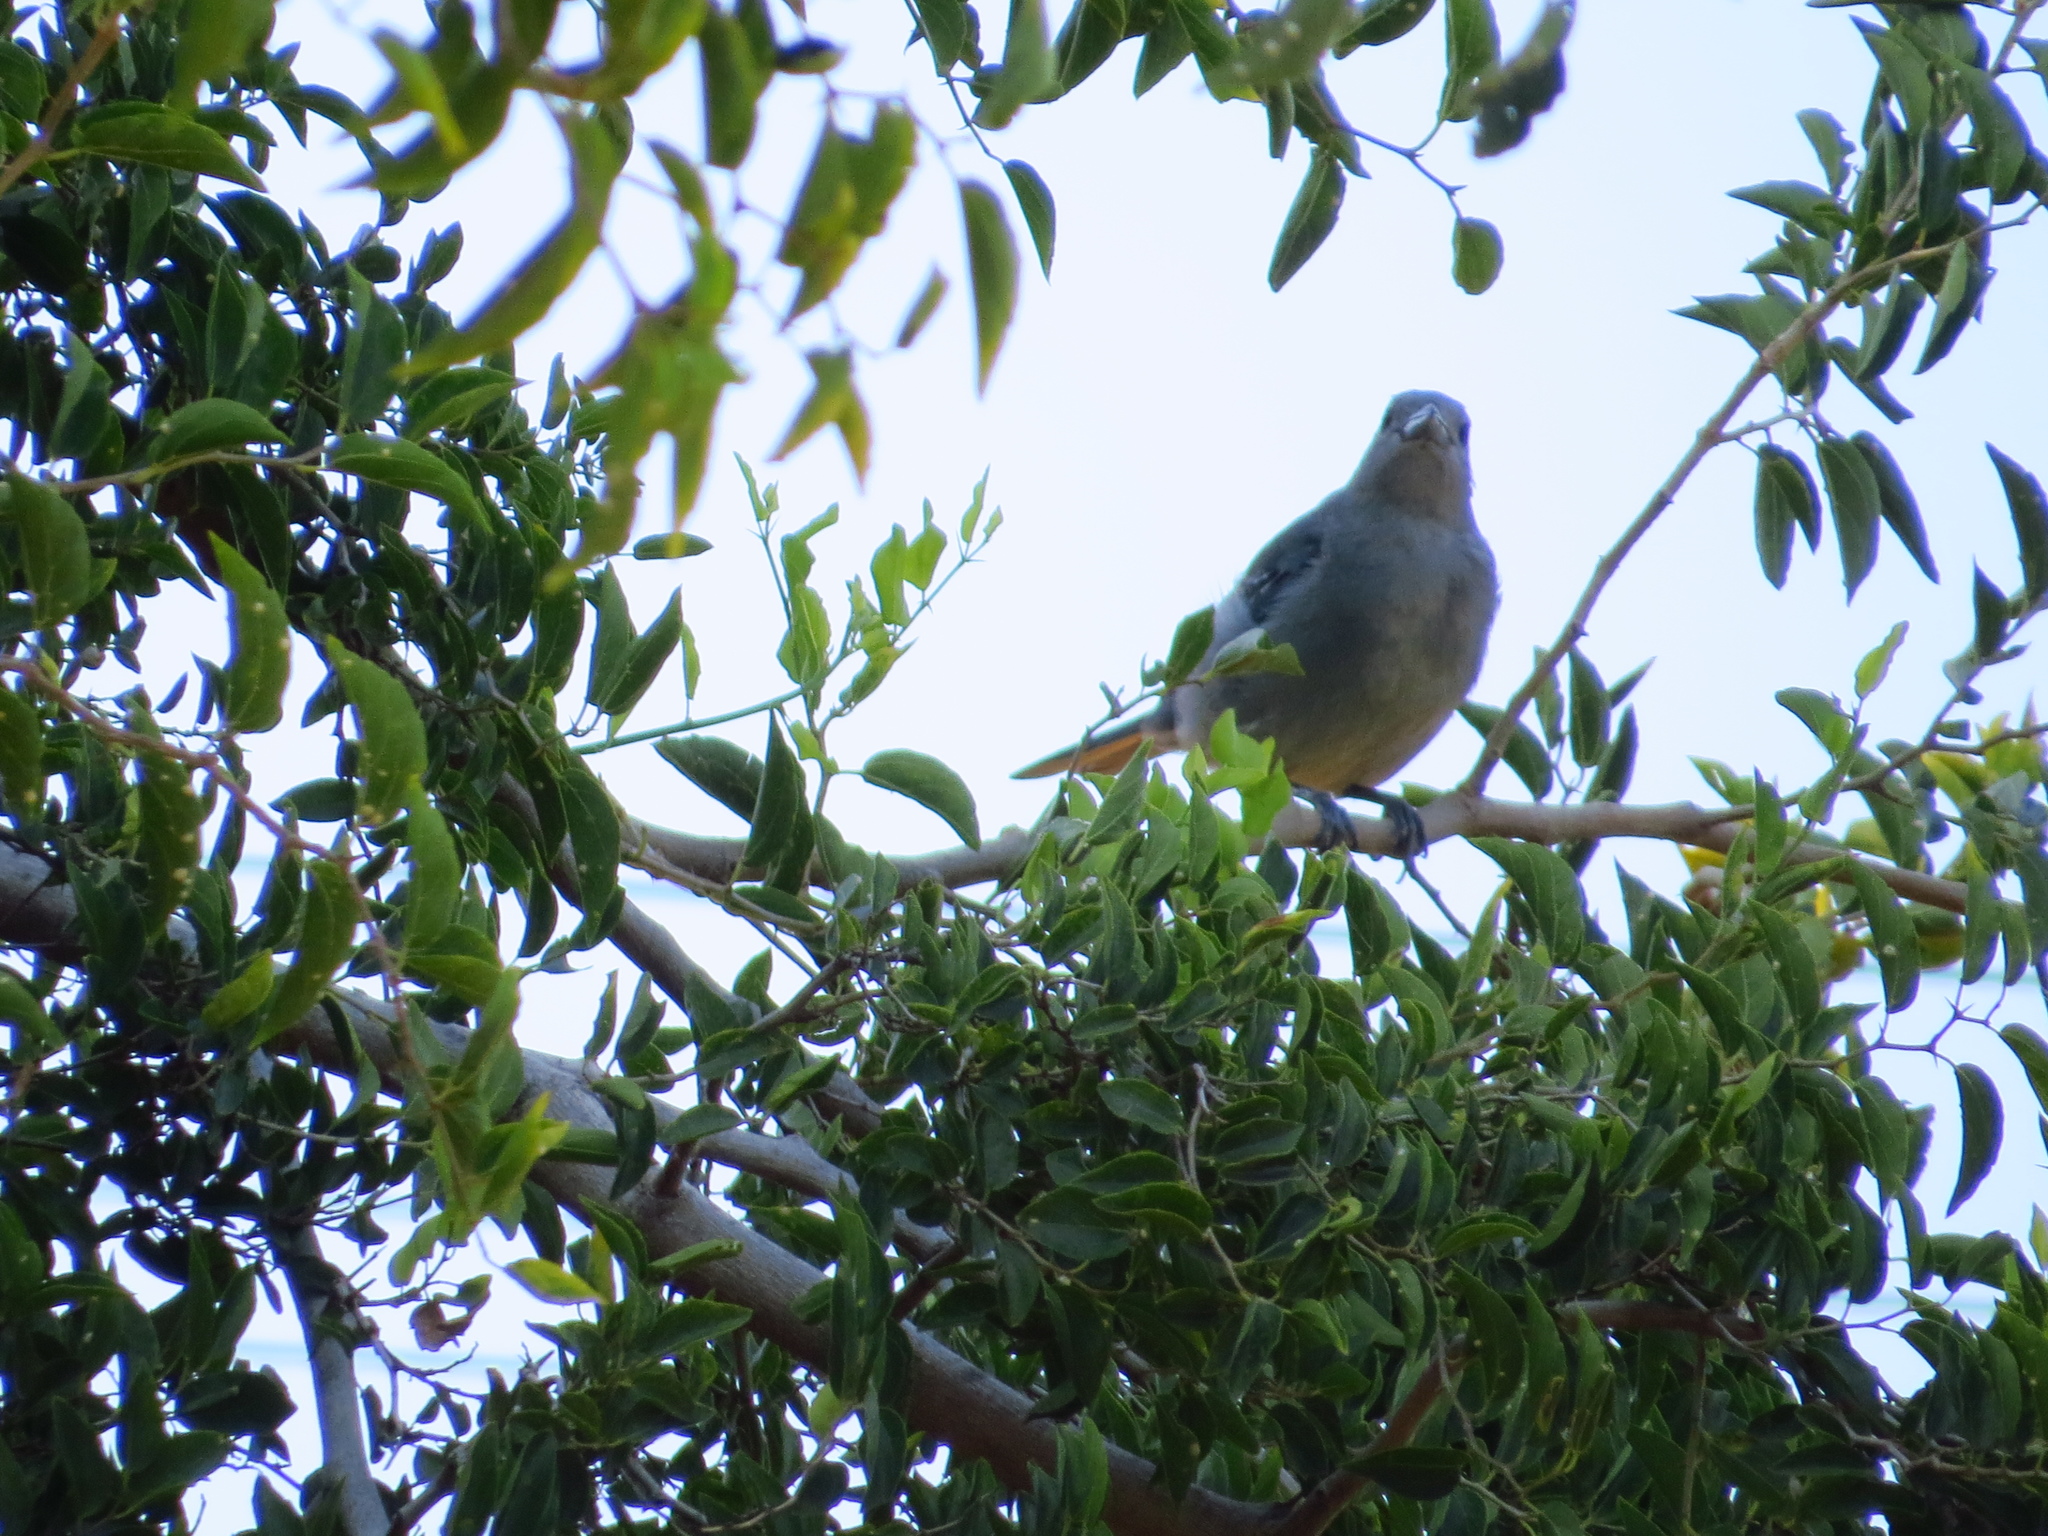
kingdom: Animalia
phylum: Chordata
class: Aves
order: Passeriformes
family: Thraupidae
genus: Thraupis
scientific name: Thraupis sayaca
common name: Sayaca tanager
